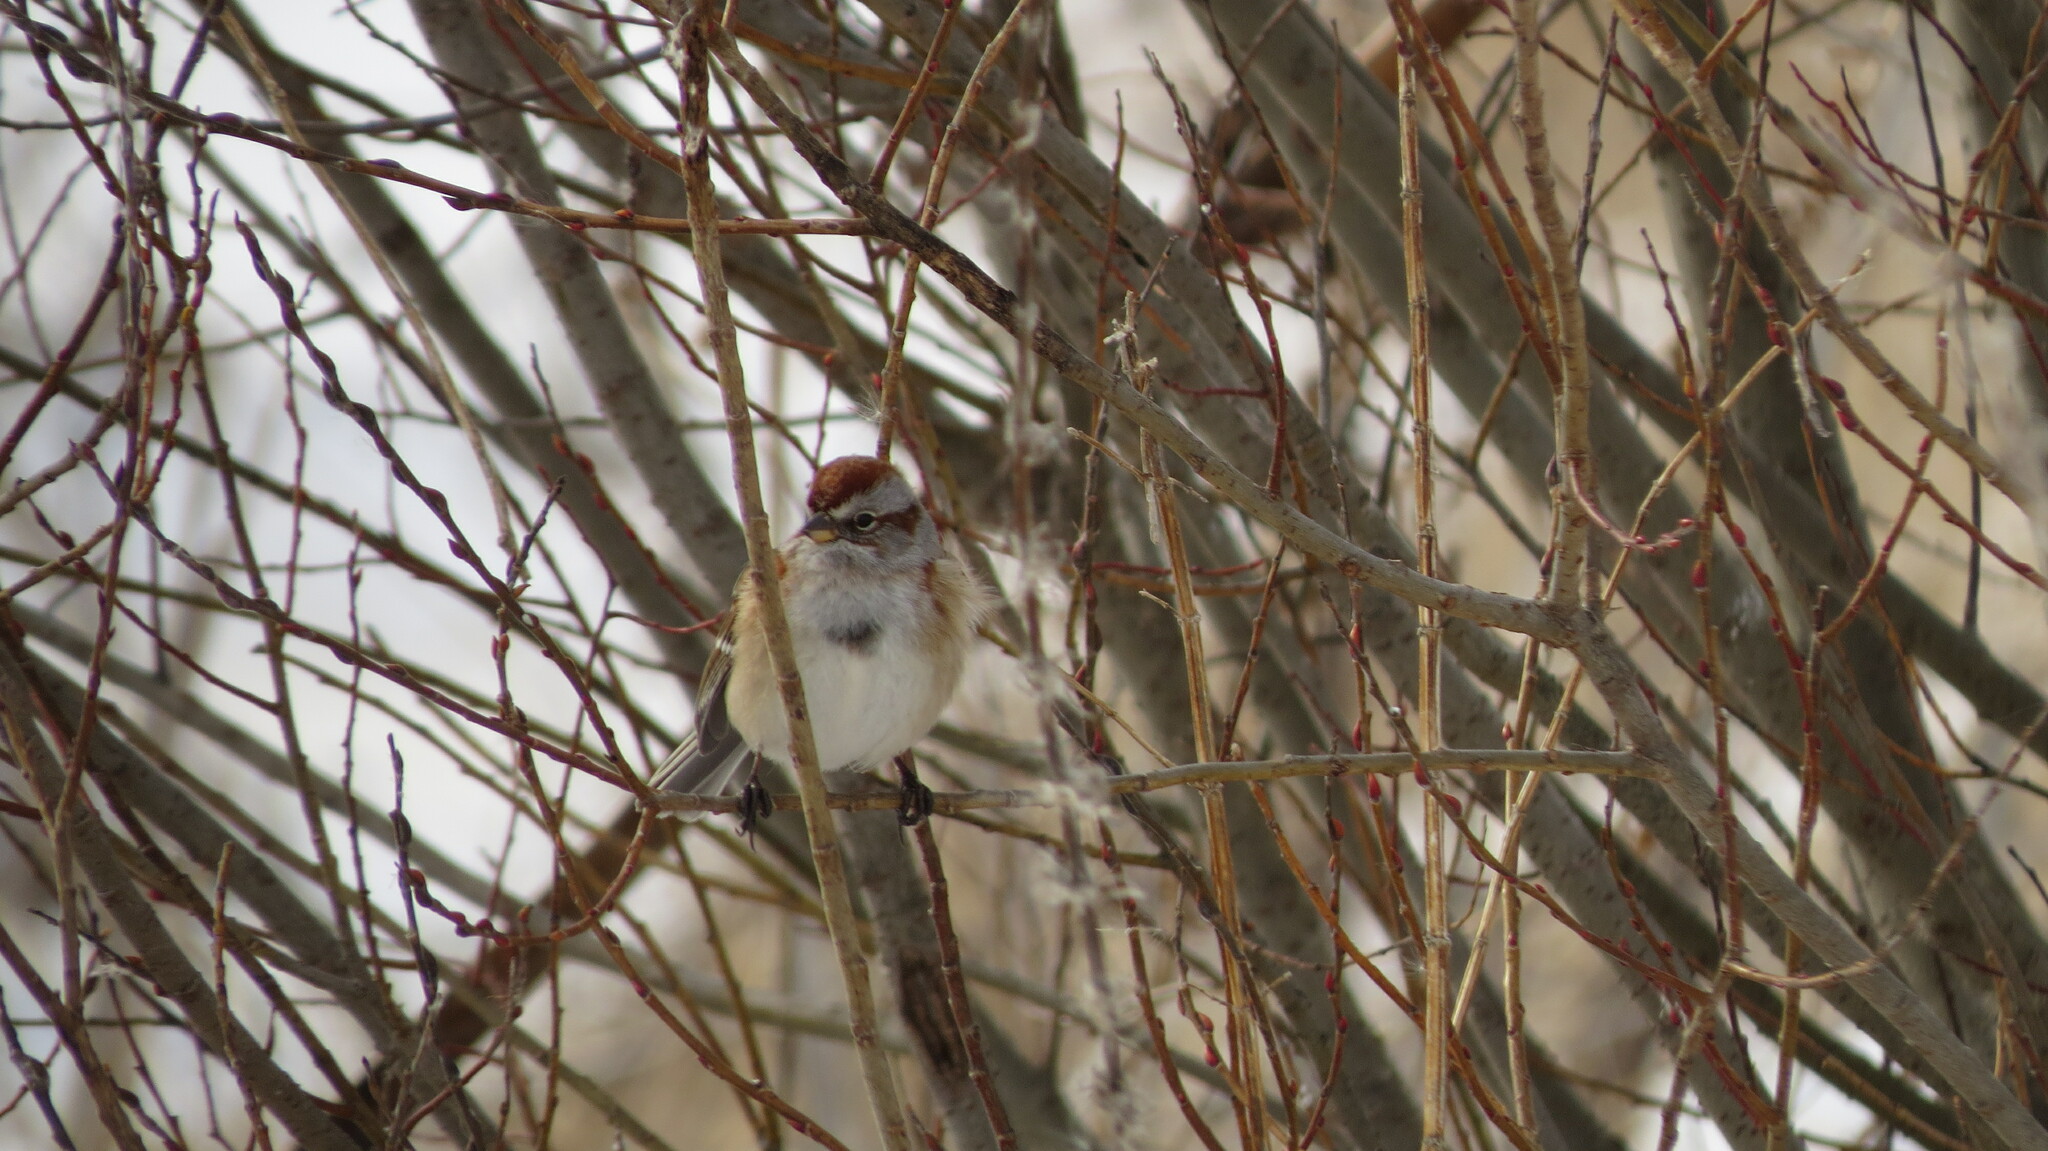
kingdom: Animalia
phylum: Chordata
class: Aves
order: Passeriformes
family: Passerellidae
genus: Spizelloides
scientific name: Spizelloides arborea
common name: American tree sparrow
